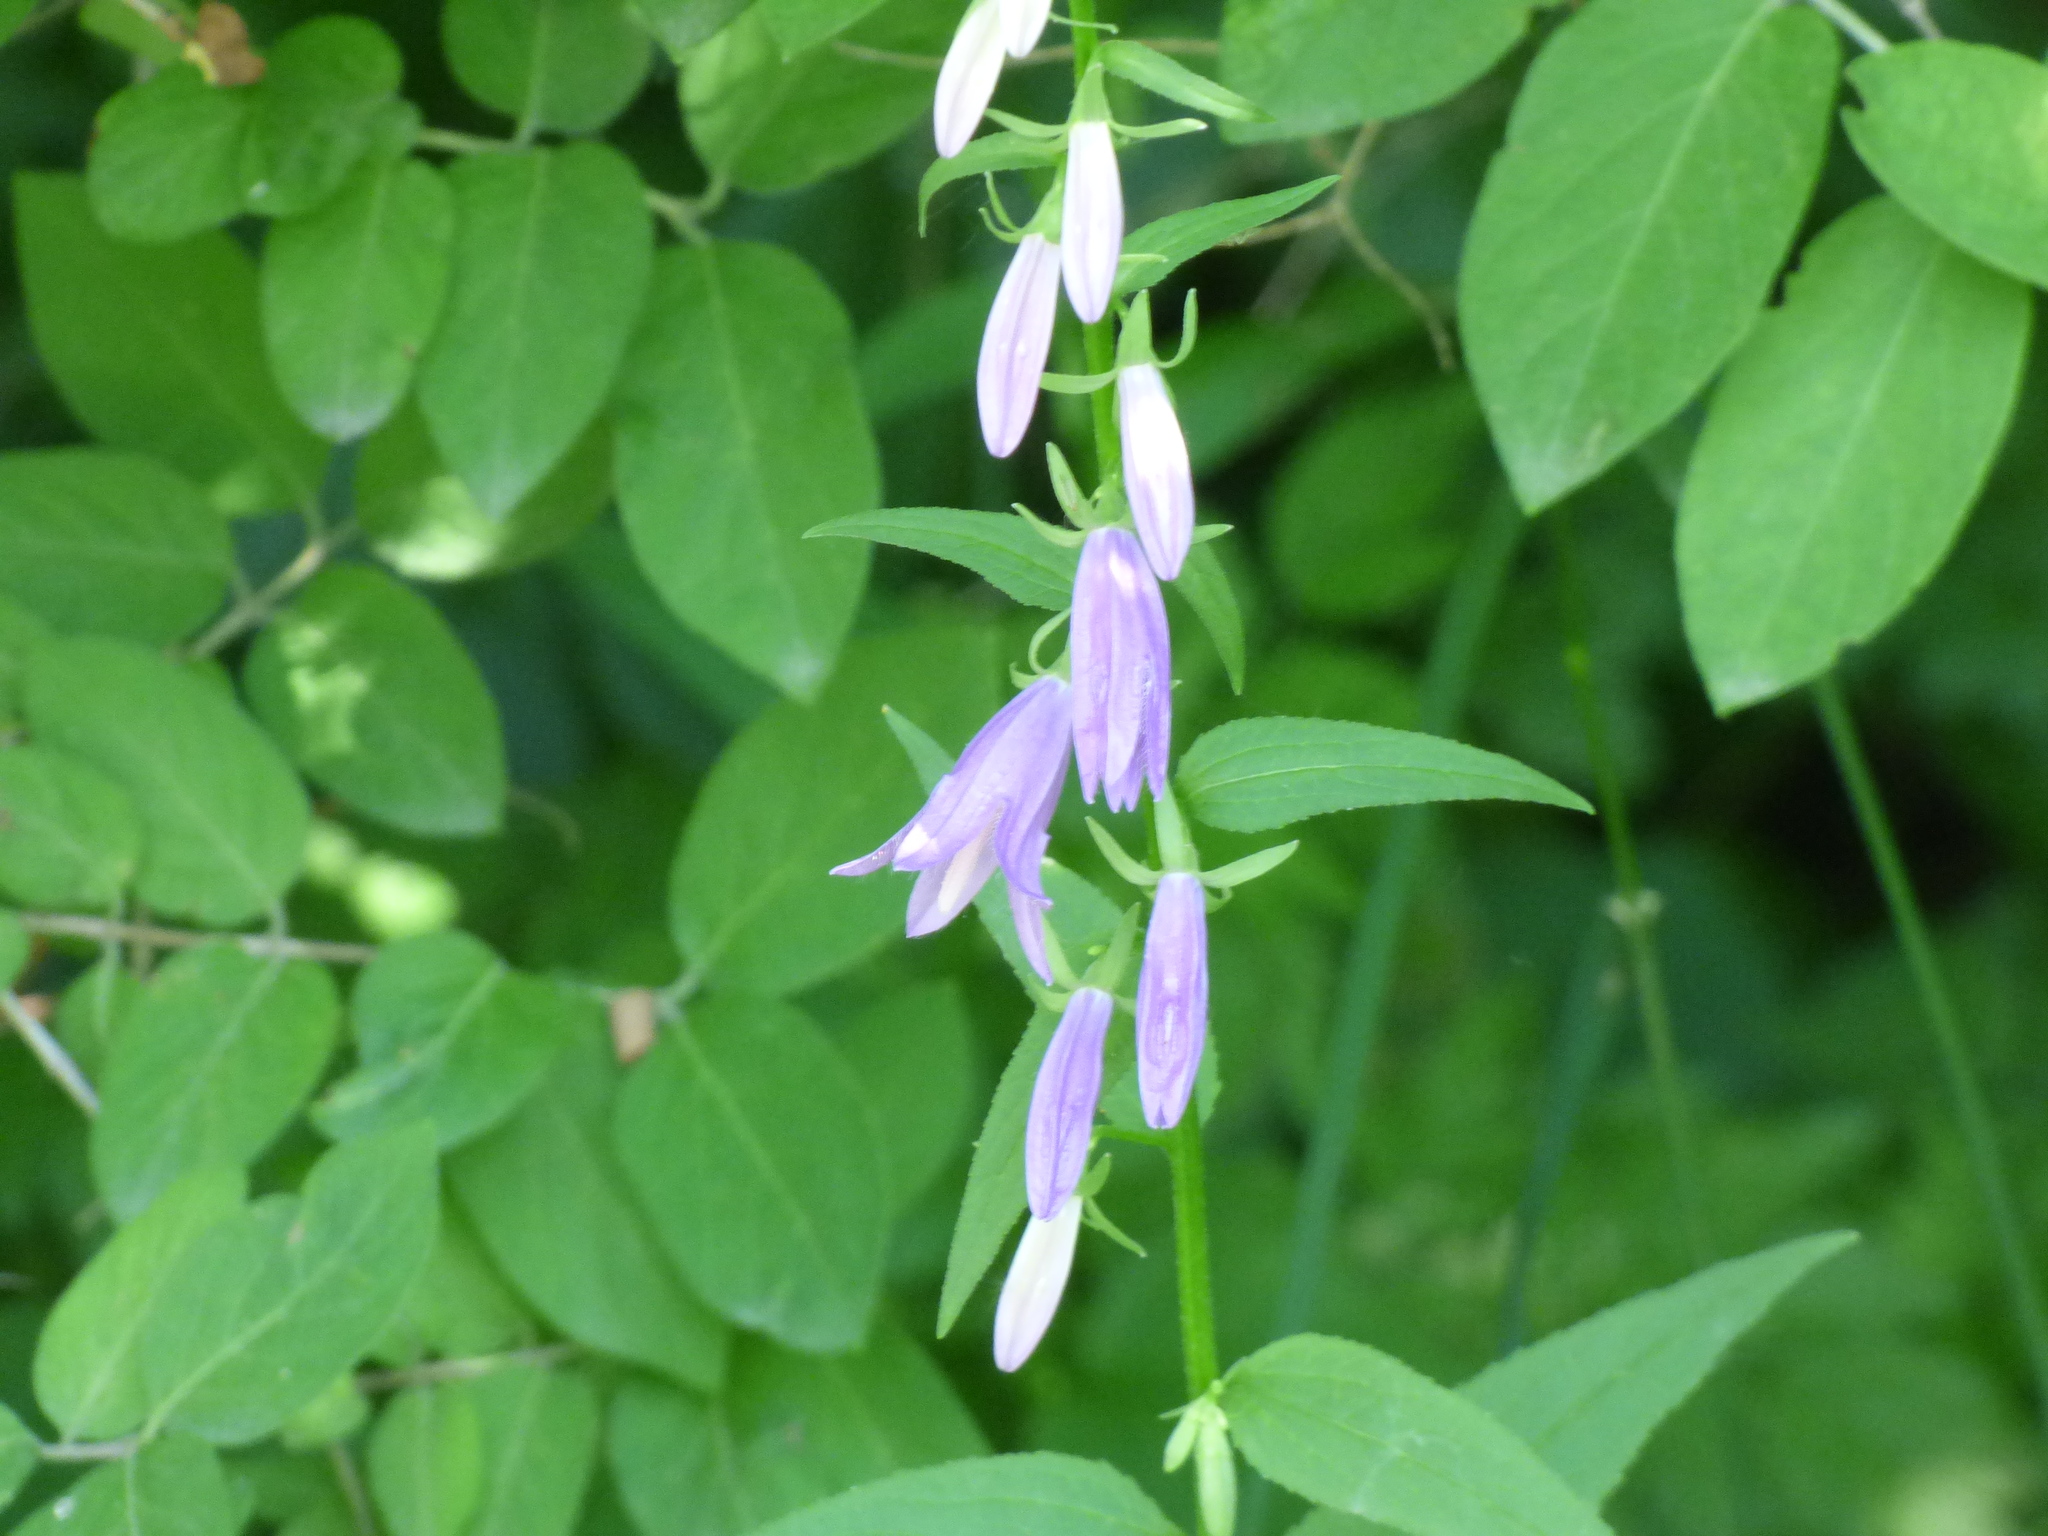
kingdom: Plantae
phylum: Tracheophyta
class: Magnoliopsida
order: Asterales
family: Campanulaceae
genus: Campanula
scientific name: Campanula rapunculoides
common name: Creeping bellflower
